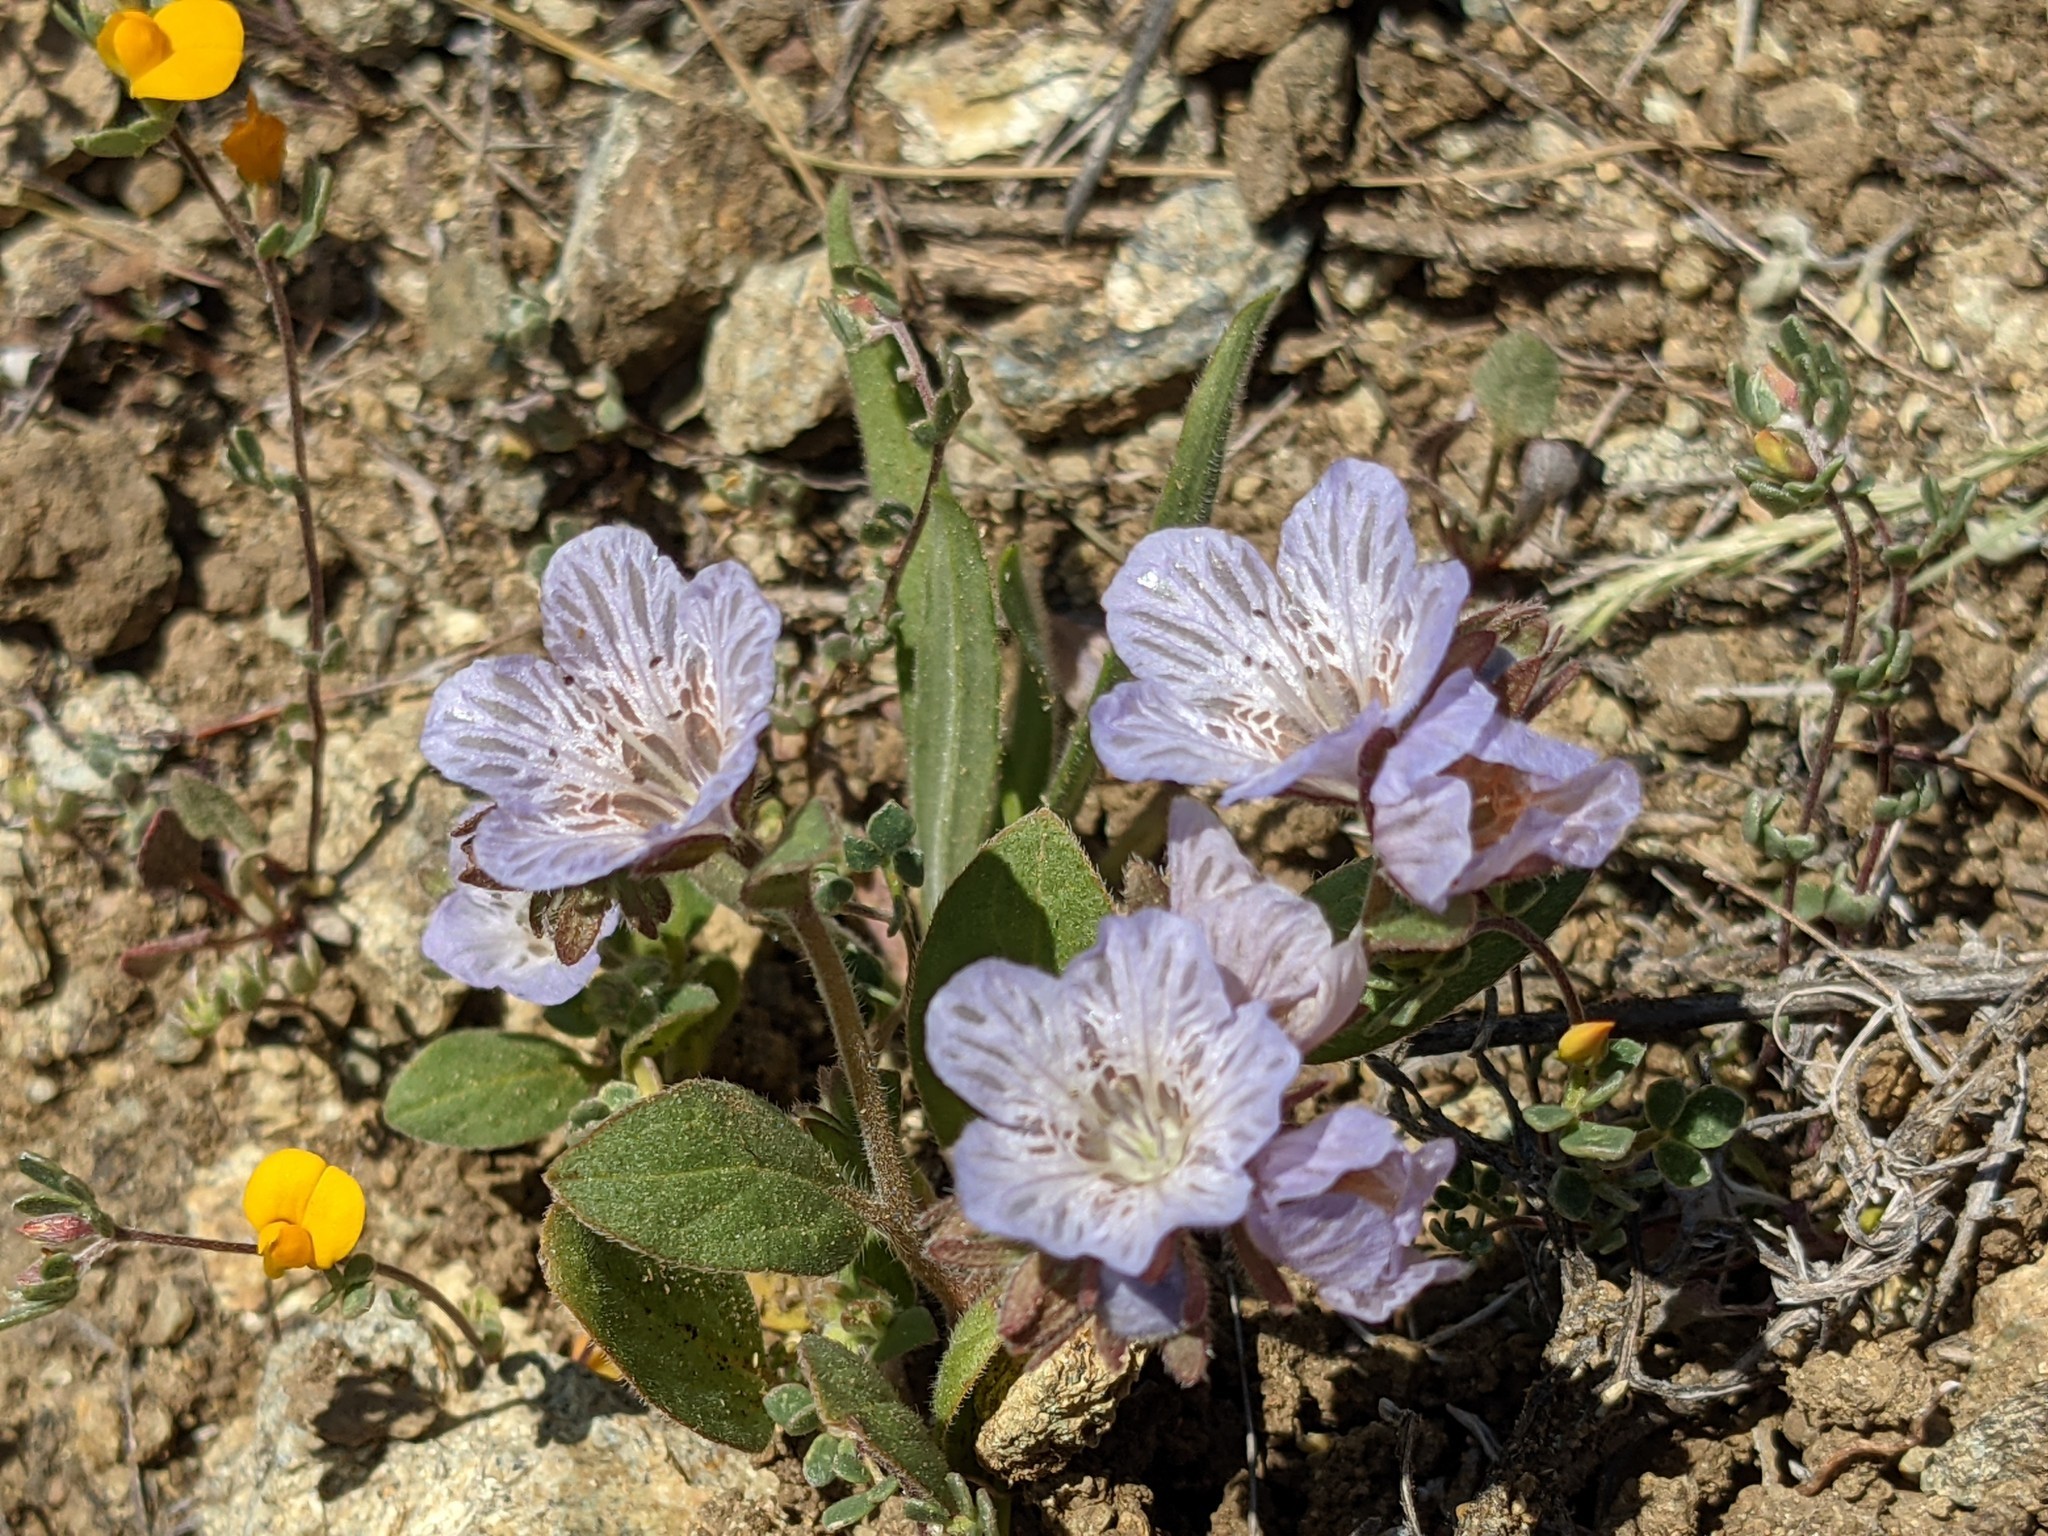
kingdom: Plantae
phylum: Tracheophyta
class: Magnoliopsida
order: Boraginales
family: Hydrophyllaceae
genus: Phacelia
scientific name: Phacelia divaricata
